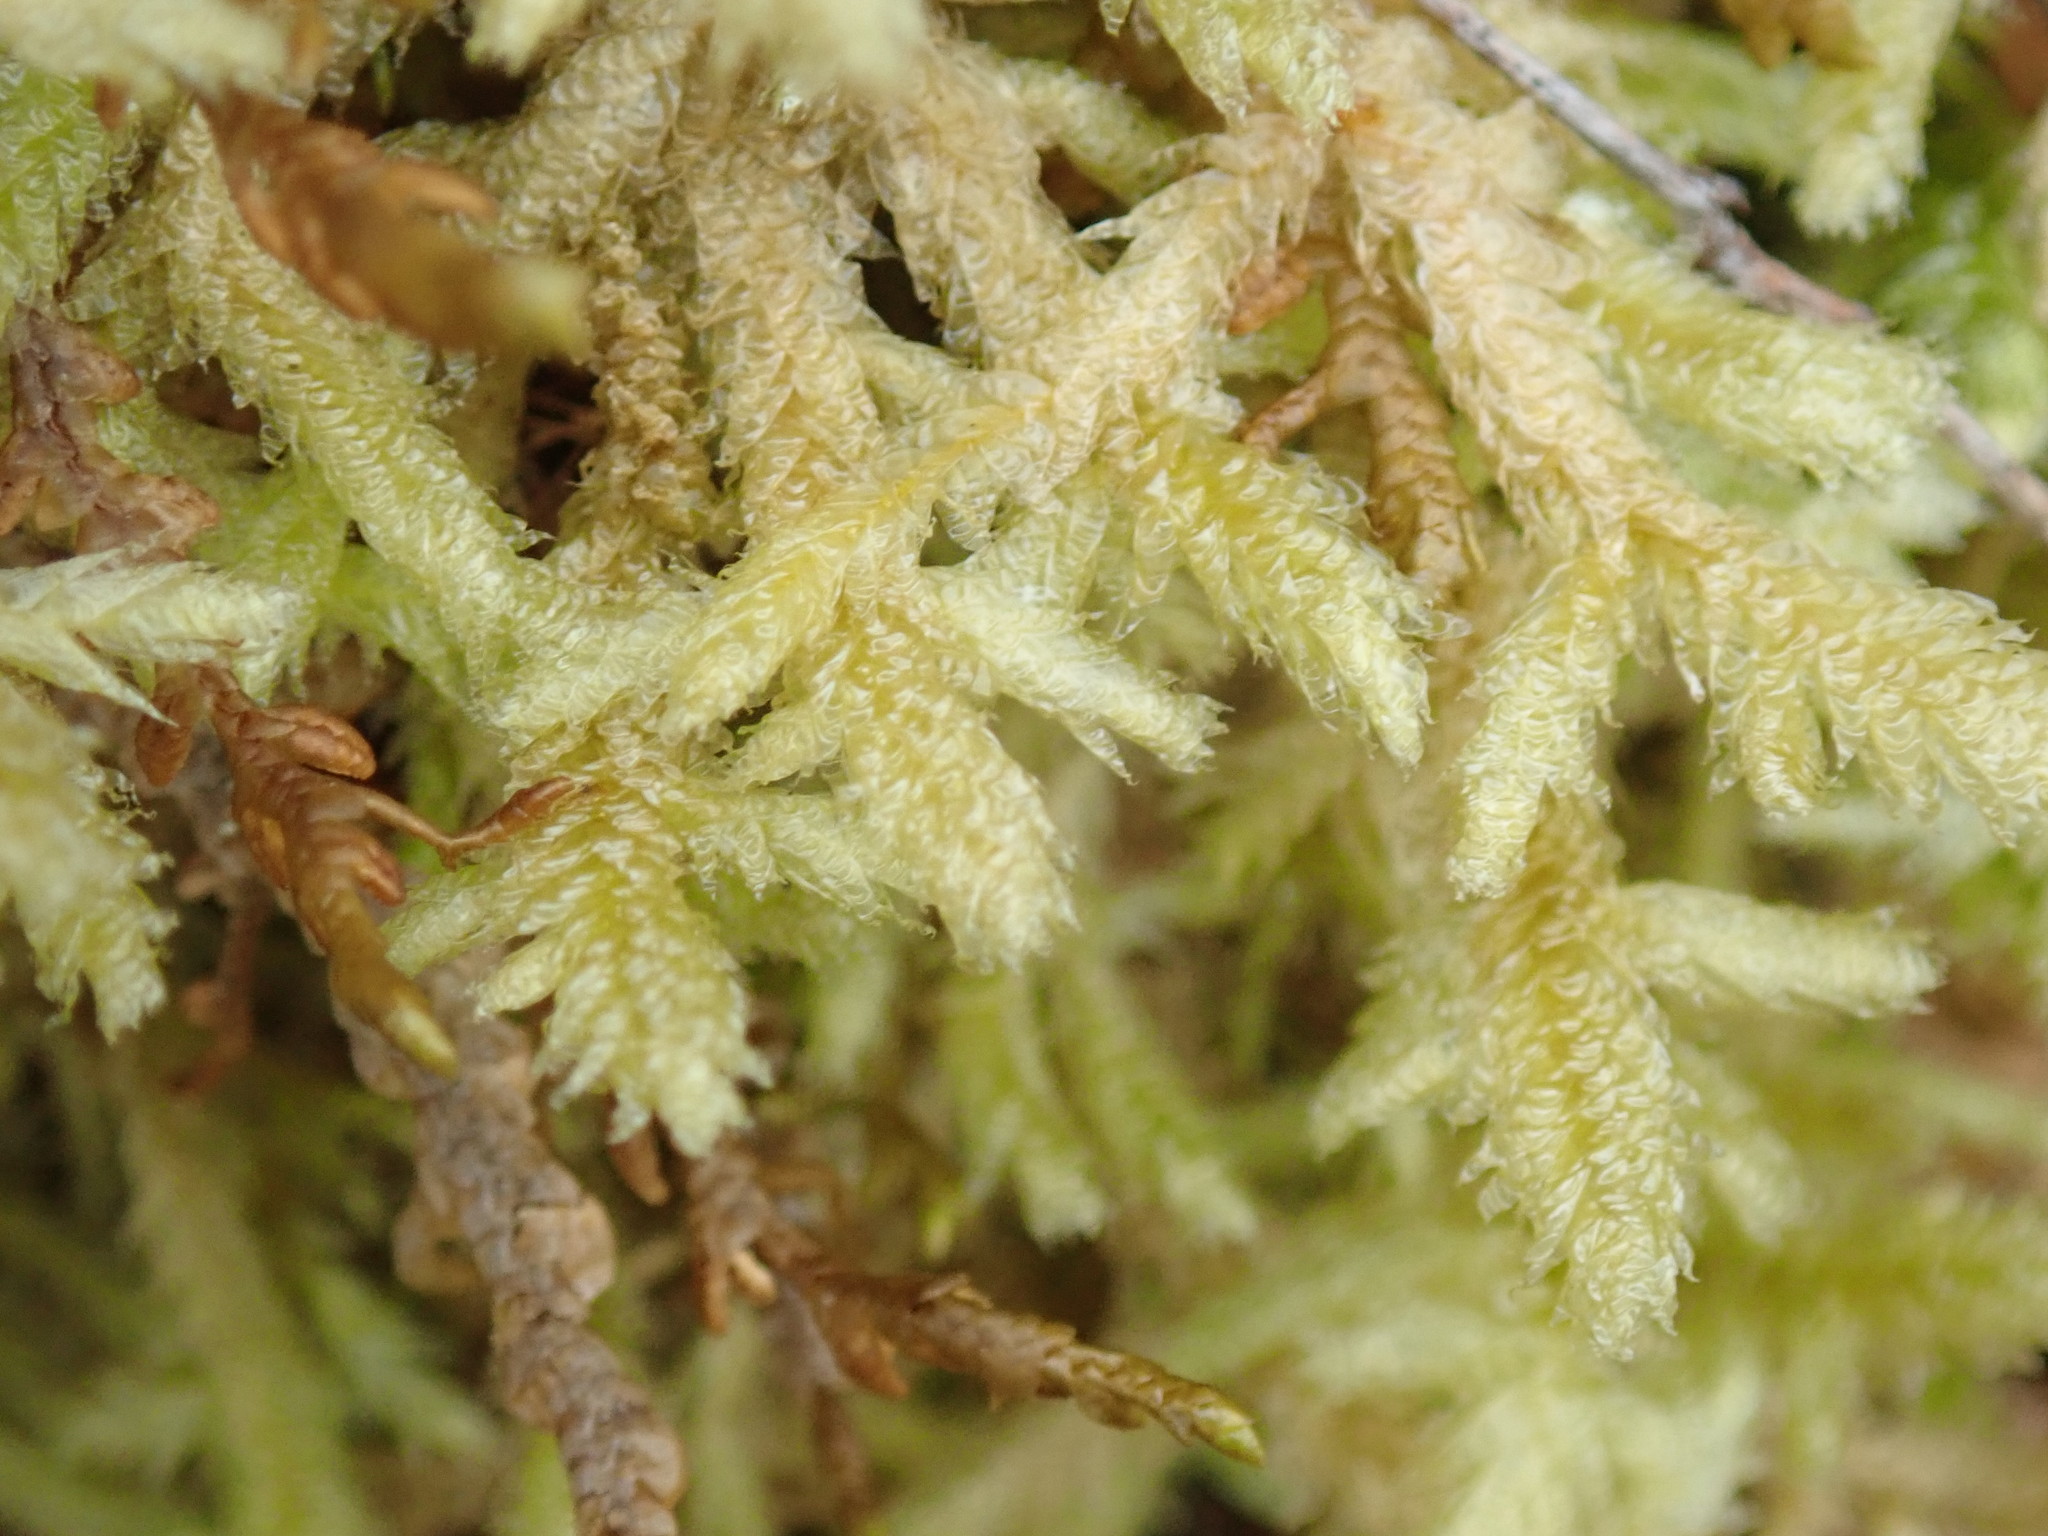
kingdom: Plantae
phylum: Bryophyta
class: Bryopsida
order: Hypnales
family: Neckeraceae
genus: Neckera
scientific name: Neckera douglasii
